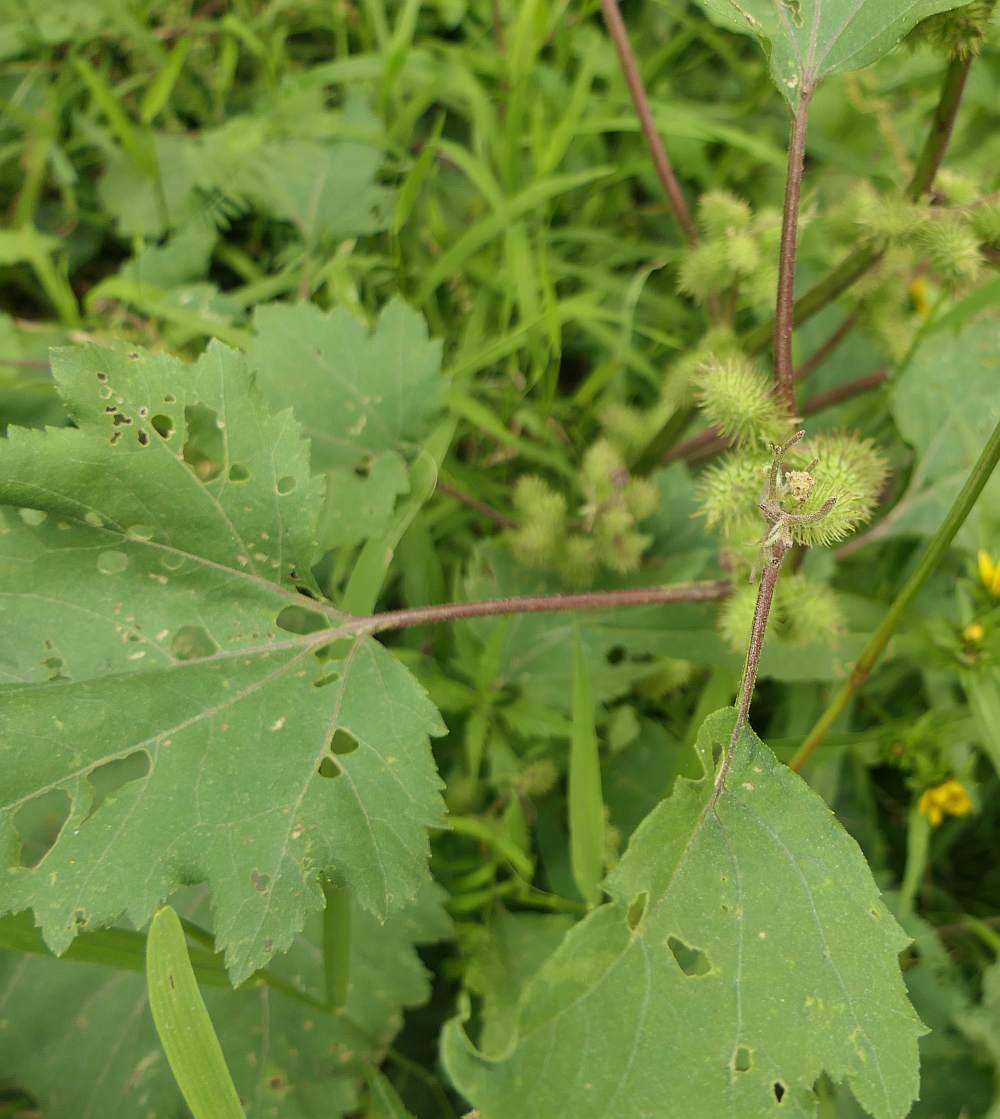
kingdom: Plantae
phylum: Tracheophyta
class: Magnoliopsida
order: Asterales
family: Asteraceae
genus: Xanthium
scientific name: Xanthium strumarium
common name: Rough cocklebur
